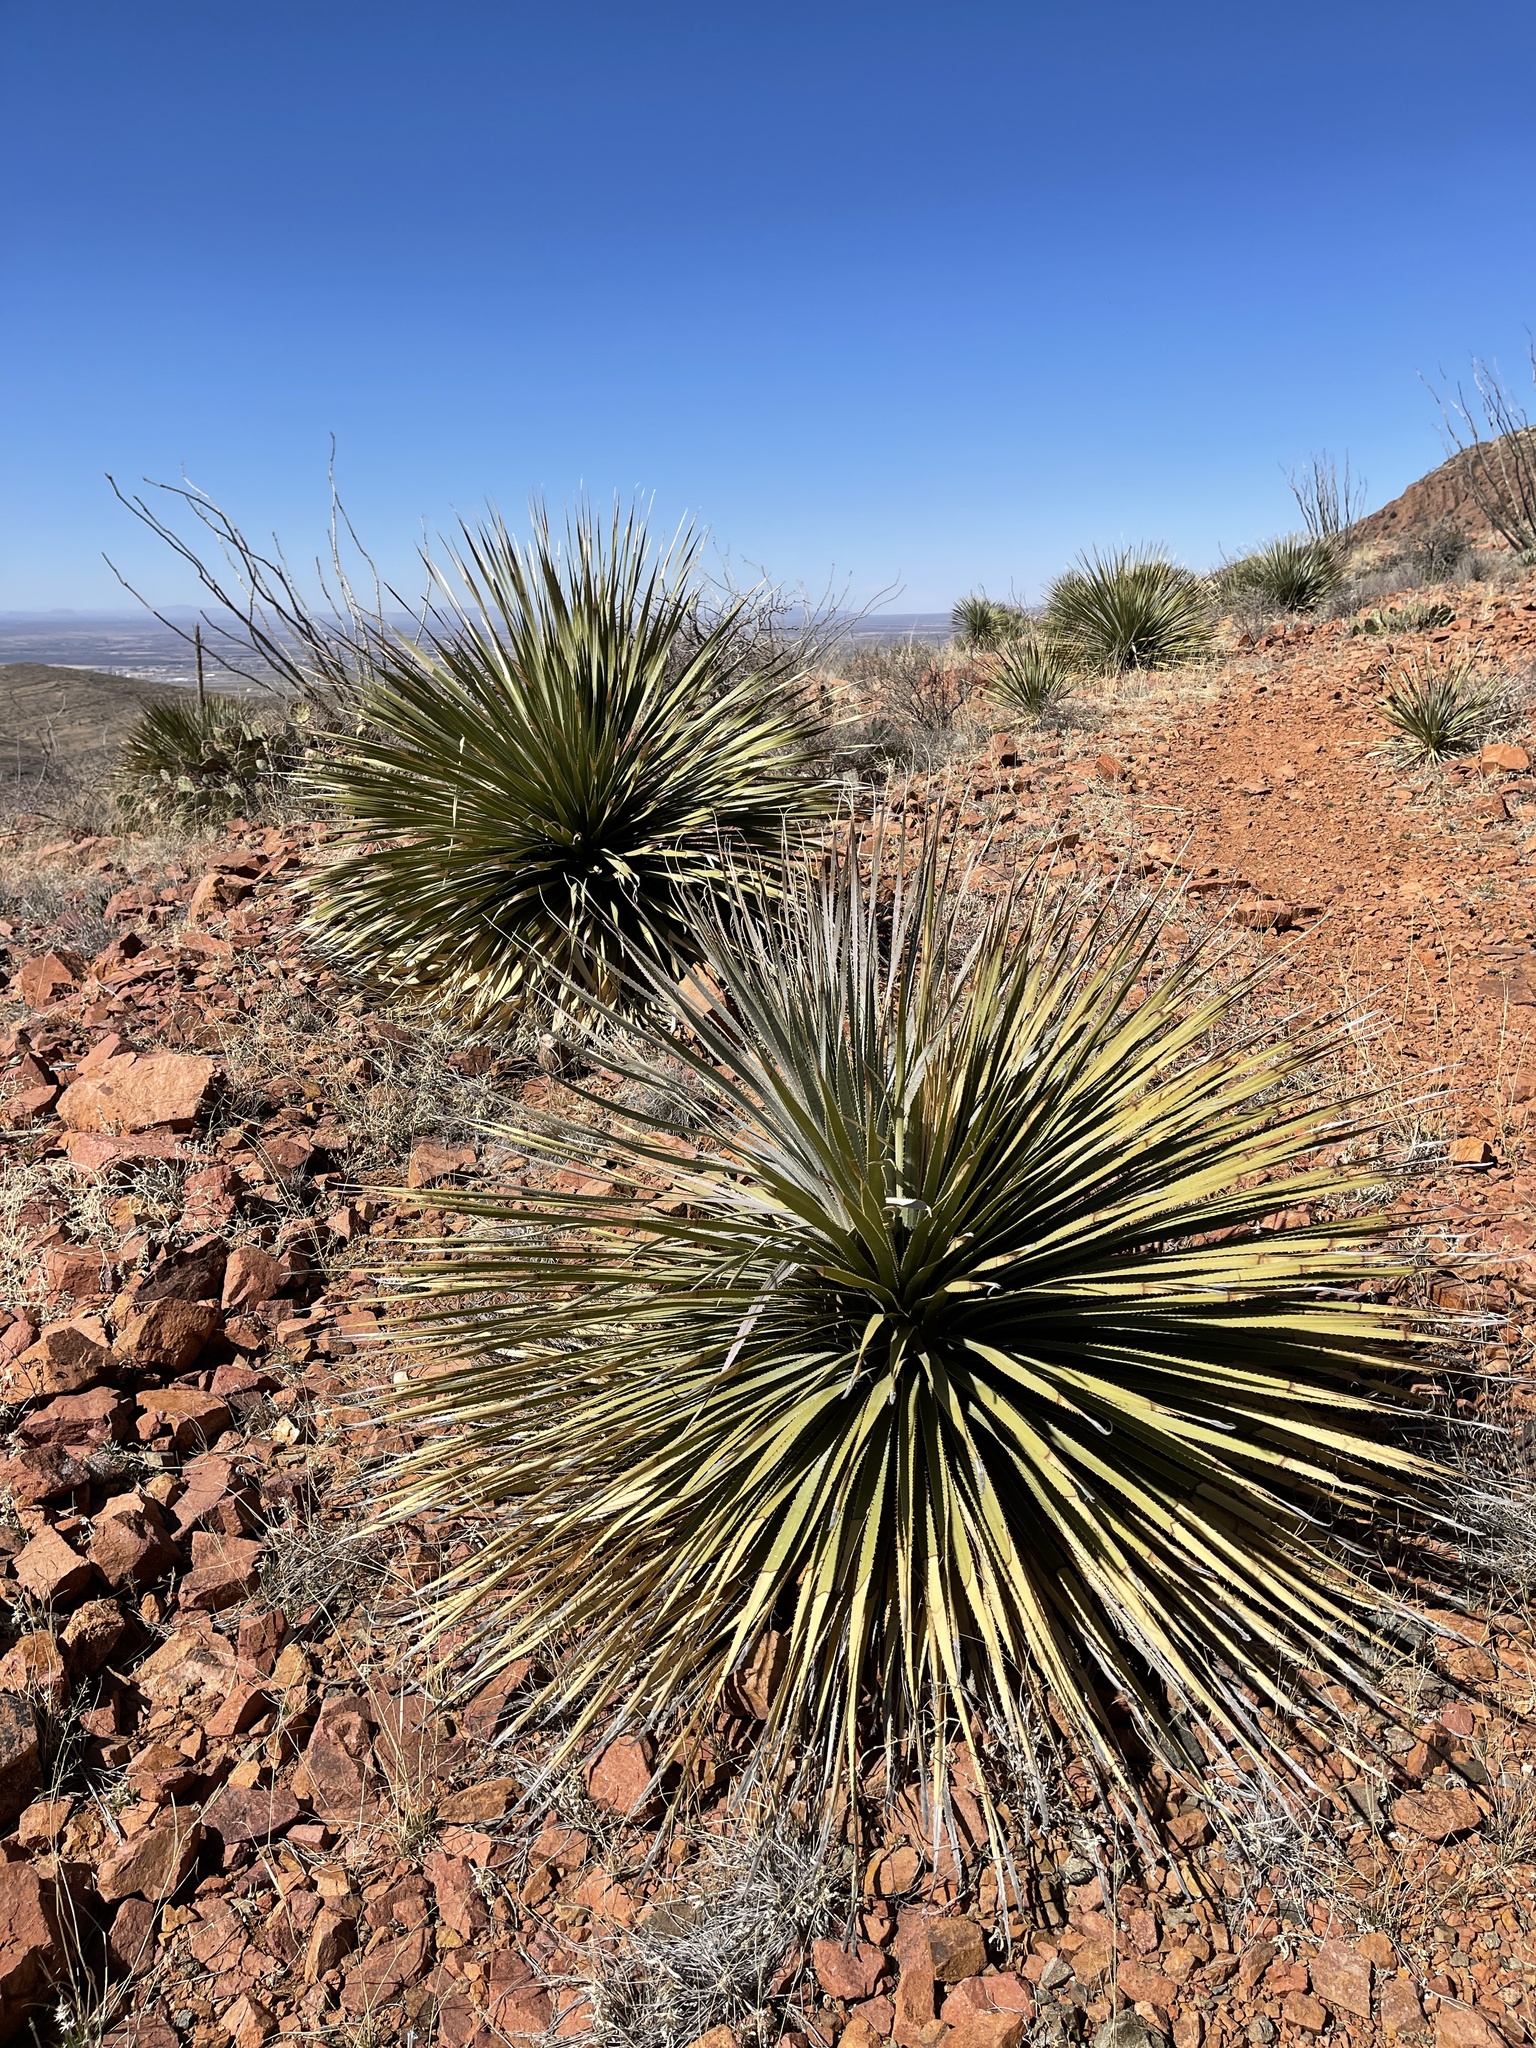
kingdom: Plantae
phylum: Tracheophyta
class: Liliopsida
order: Asparagales
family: Asparagaceae
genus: Dasylirion
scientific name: Dasylirion wheeleri
